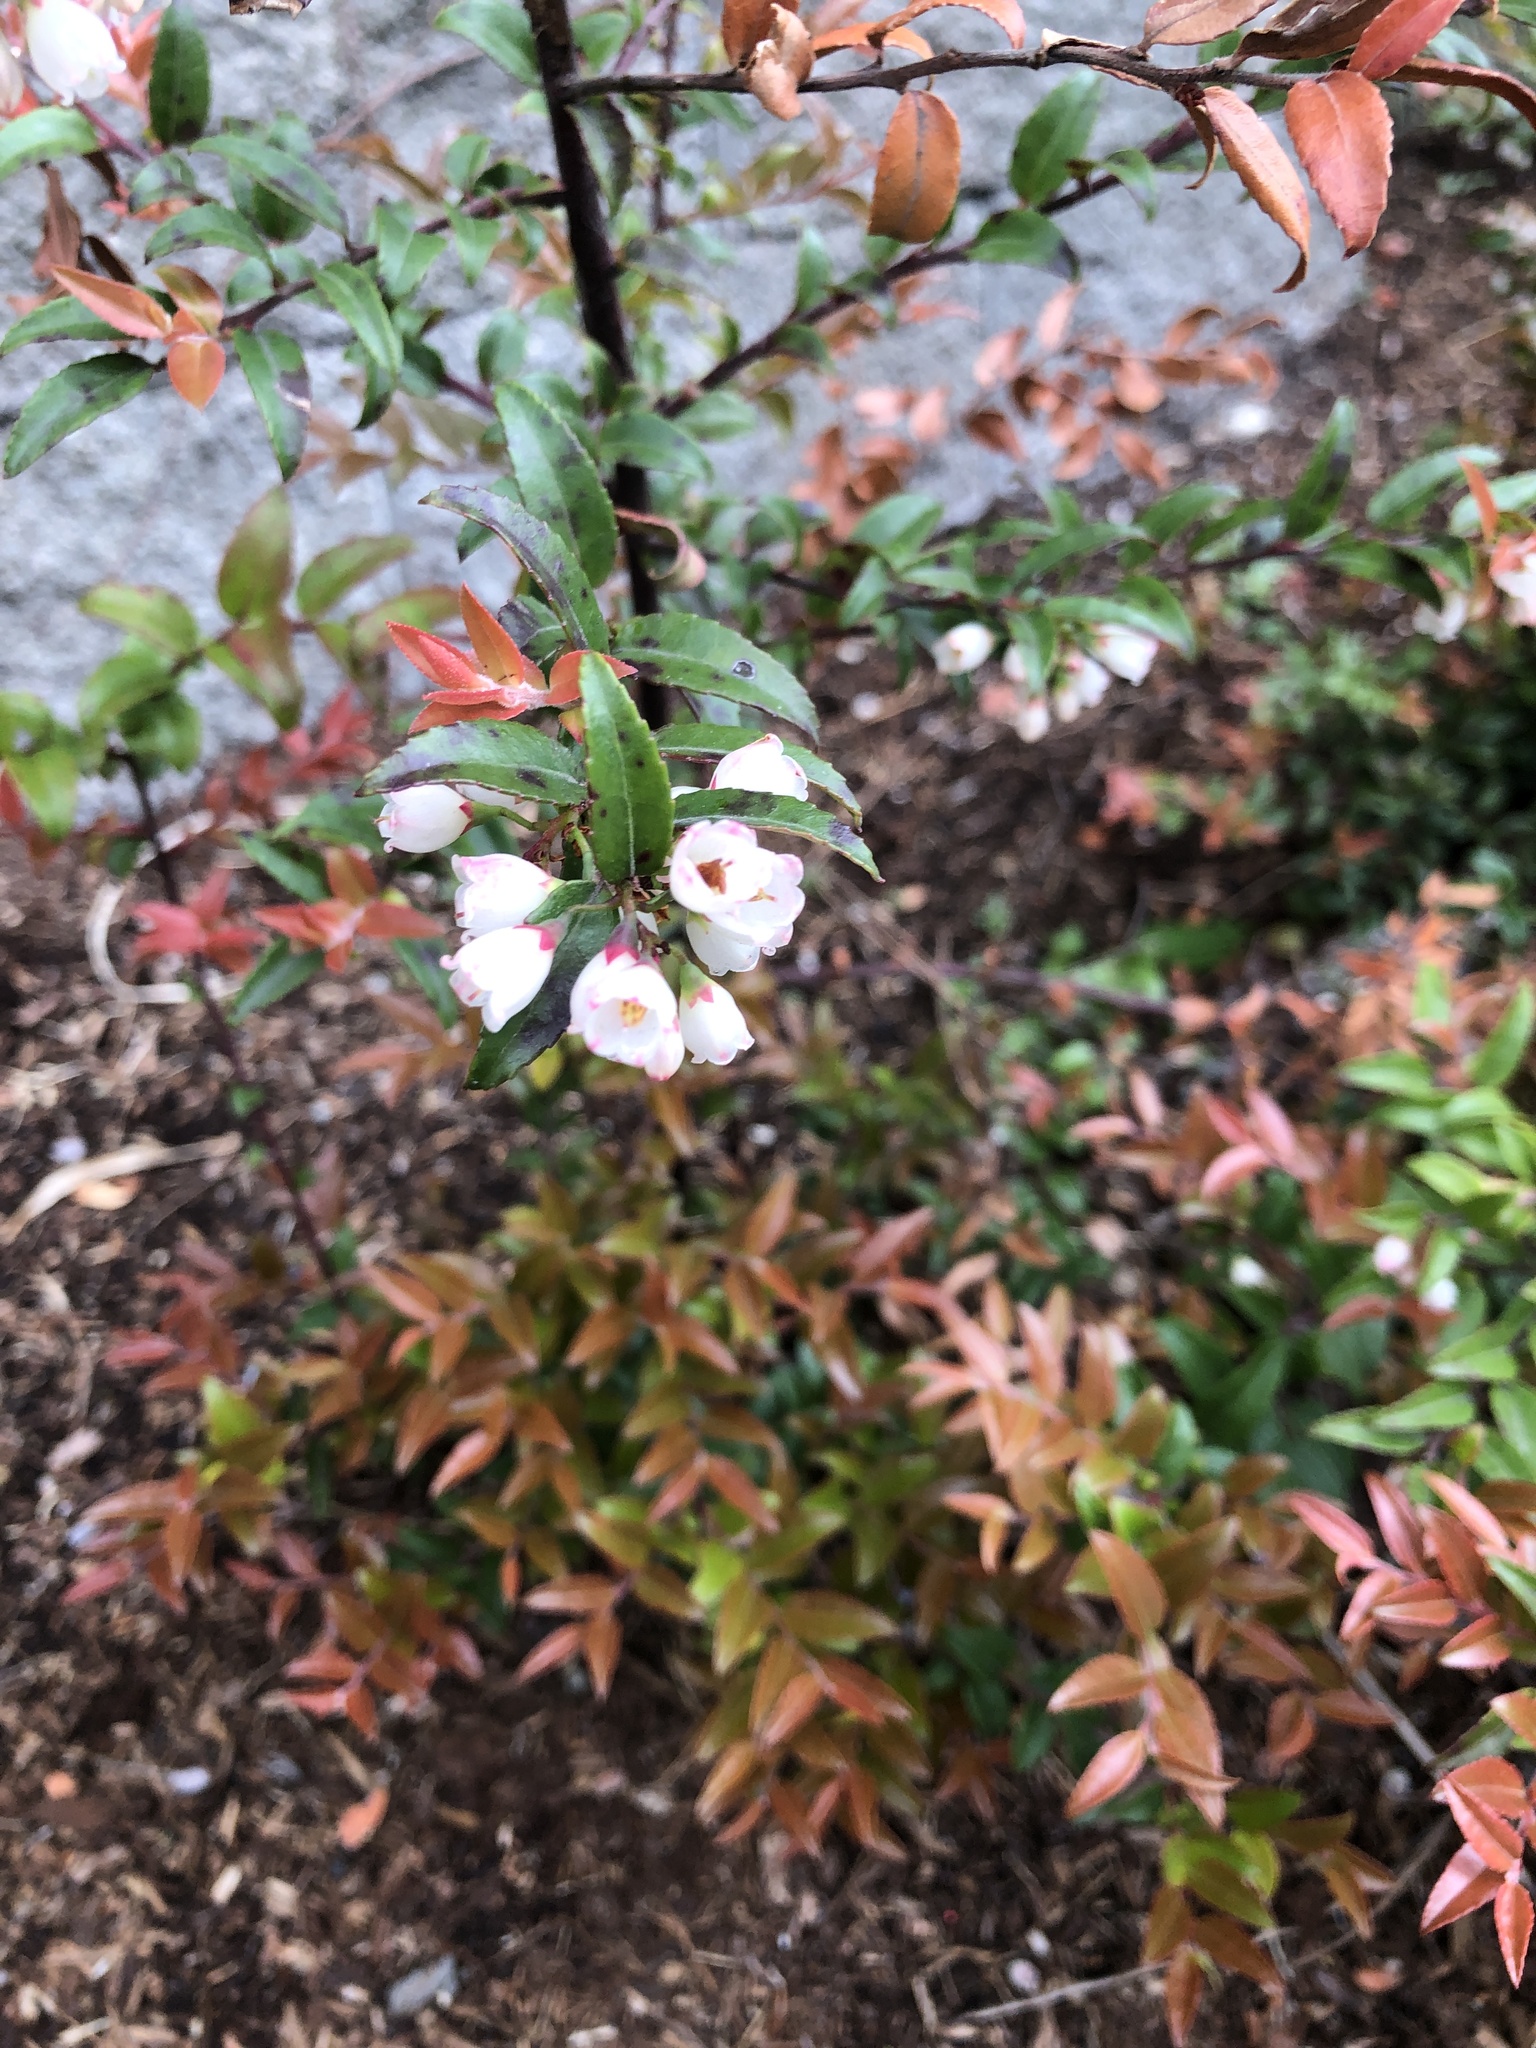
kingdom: Plantae
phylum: Tracheophyta
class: Magnoliopsida
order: Ericales
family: Ericaceae
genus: Vaccinium
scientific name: Vaccinium ovatum
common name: California-huckleberry
